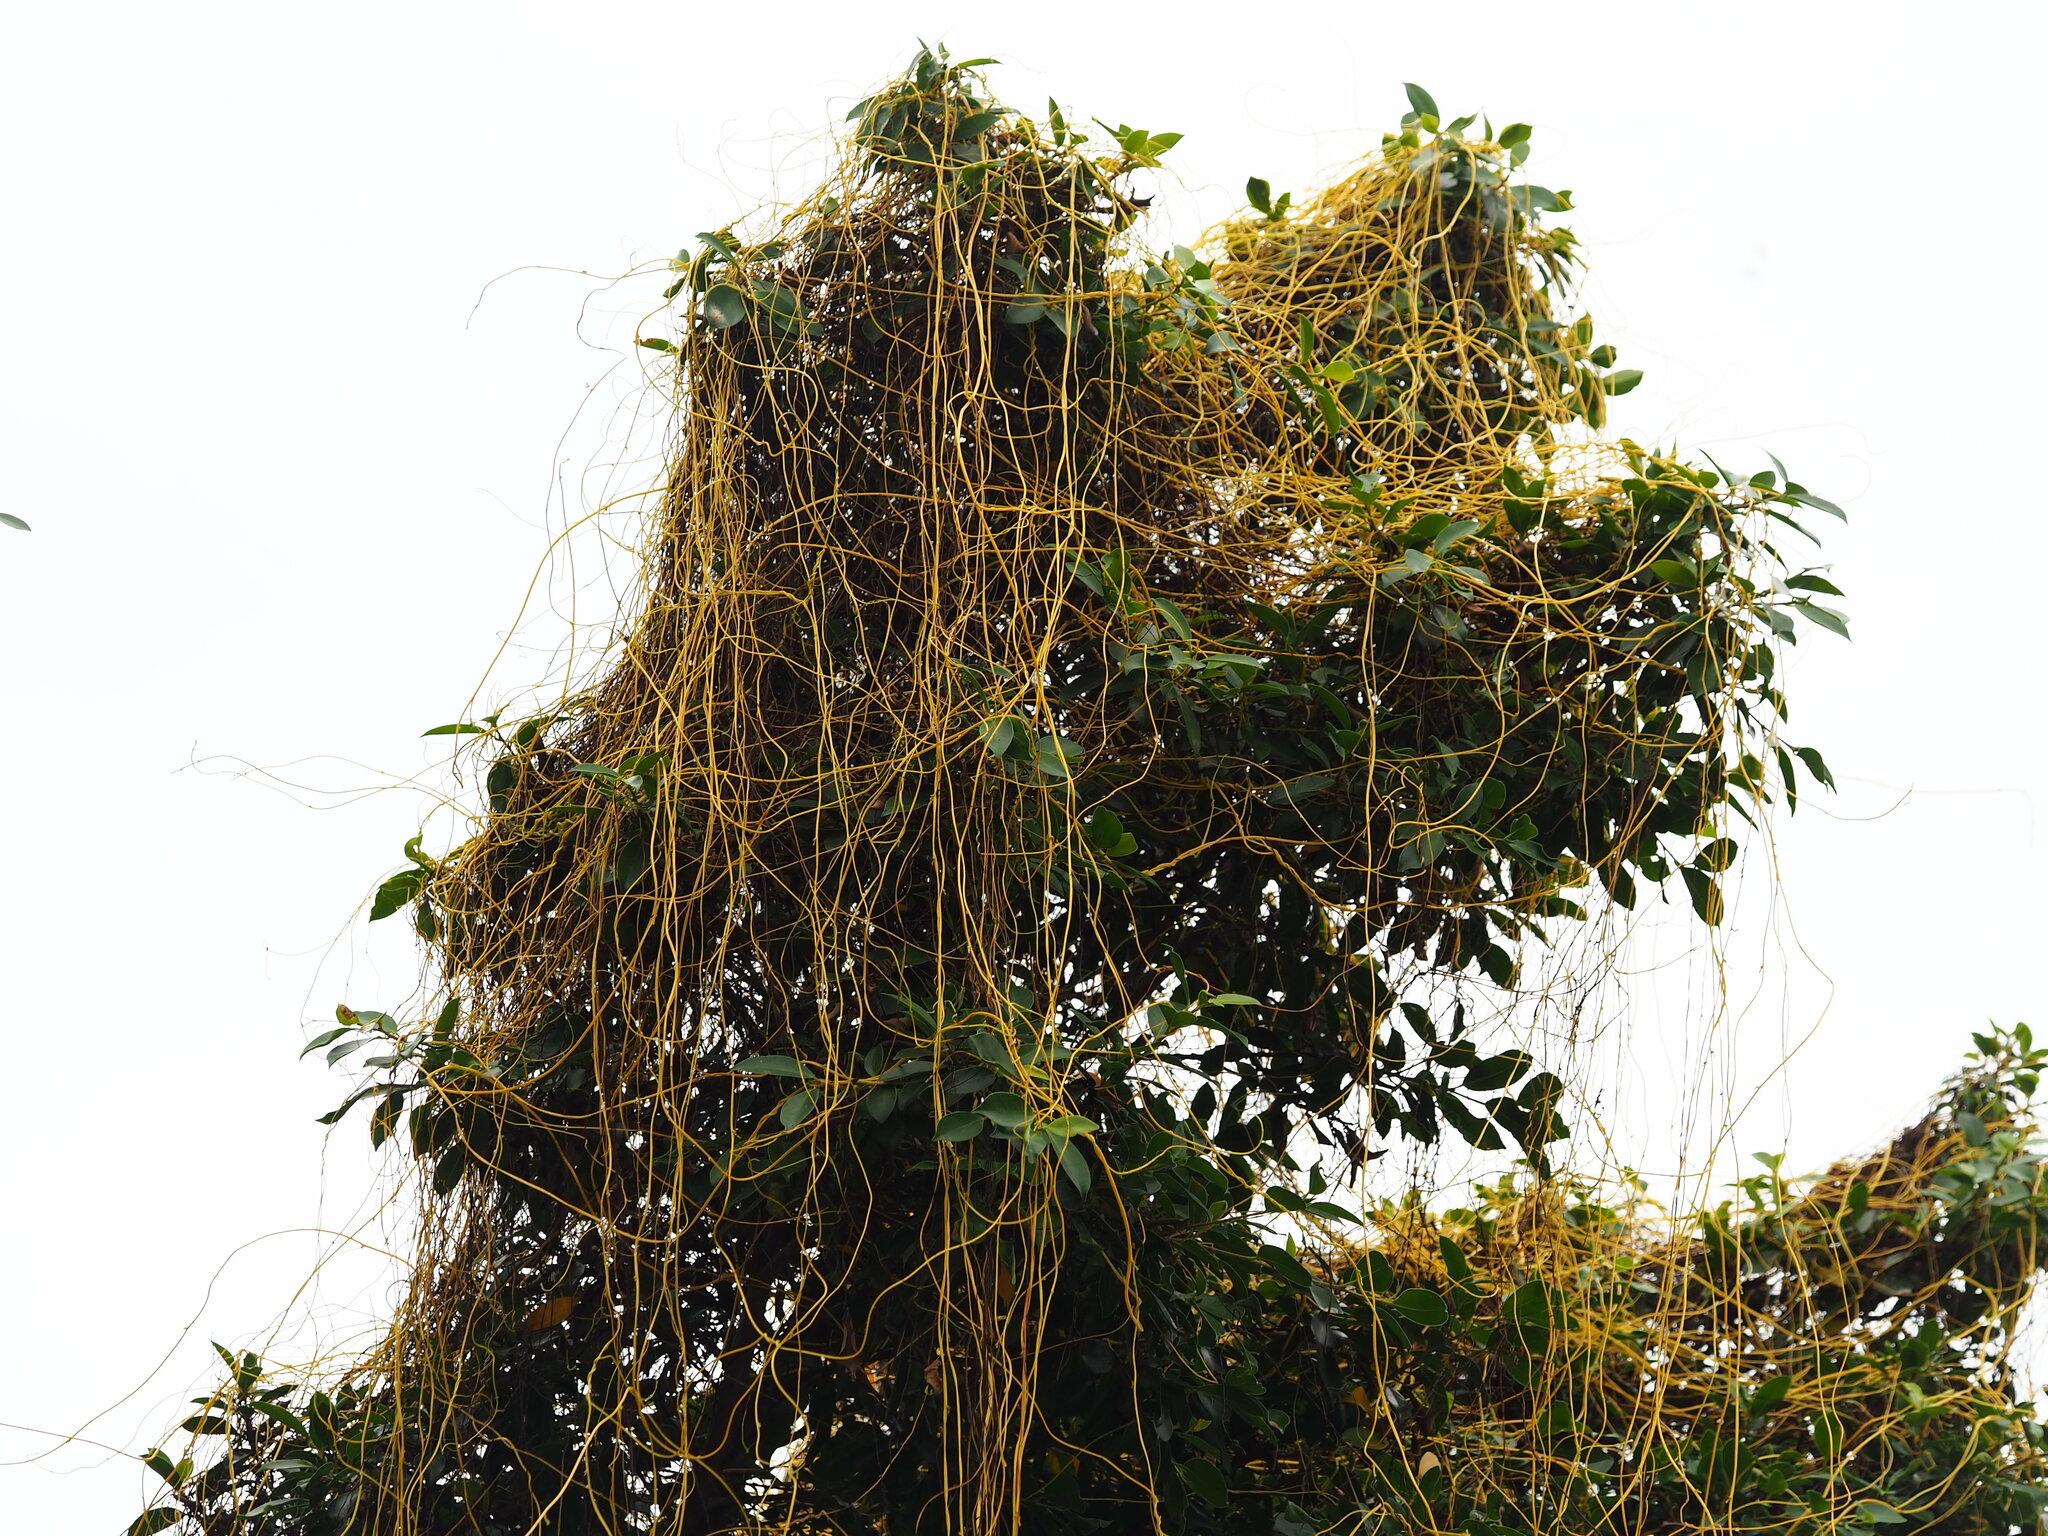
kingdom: Plantae
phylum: Tracheophyta
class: Magnoliopsida
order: Solanales
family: Convolvulaceae
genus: Cuscuta
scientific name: Cuscuta japonica
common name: Japanese dodder
